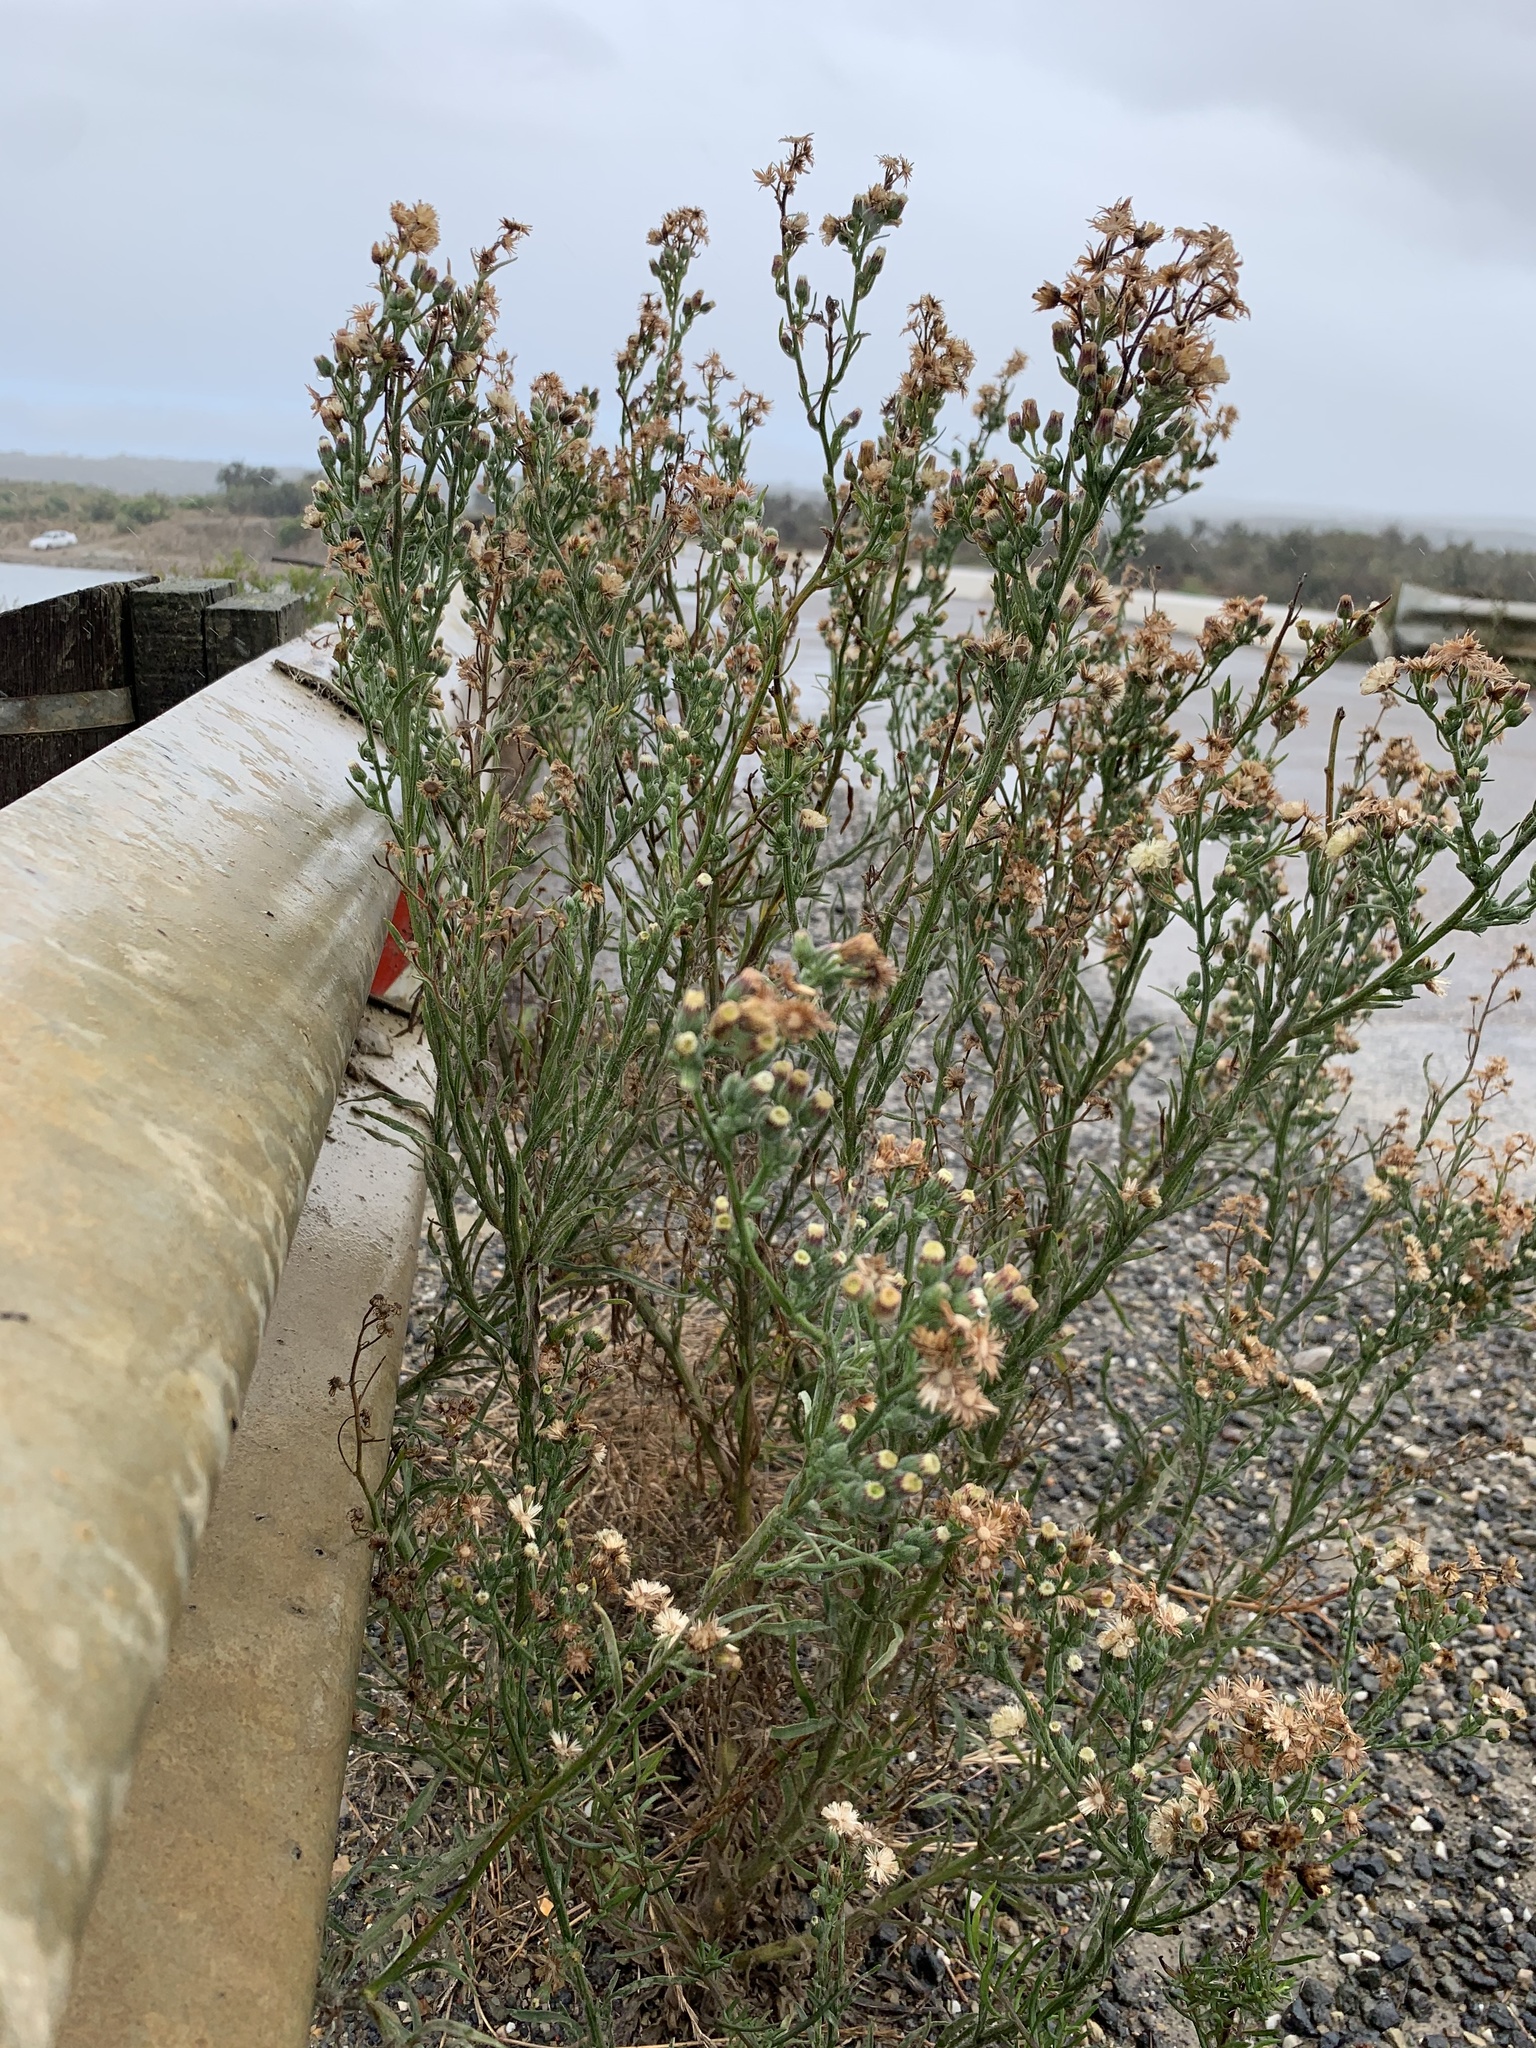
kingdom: Plantae
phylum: Tracheophyta
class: Magnoliopsida
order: Asterales
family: Asteraceae
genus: Erigeron
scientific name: Erigeron bonariensis
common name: Argentine fleabane
